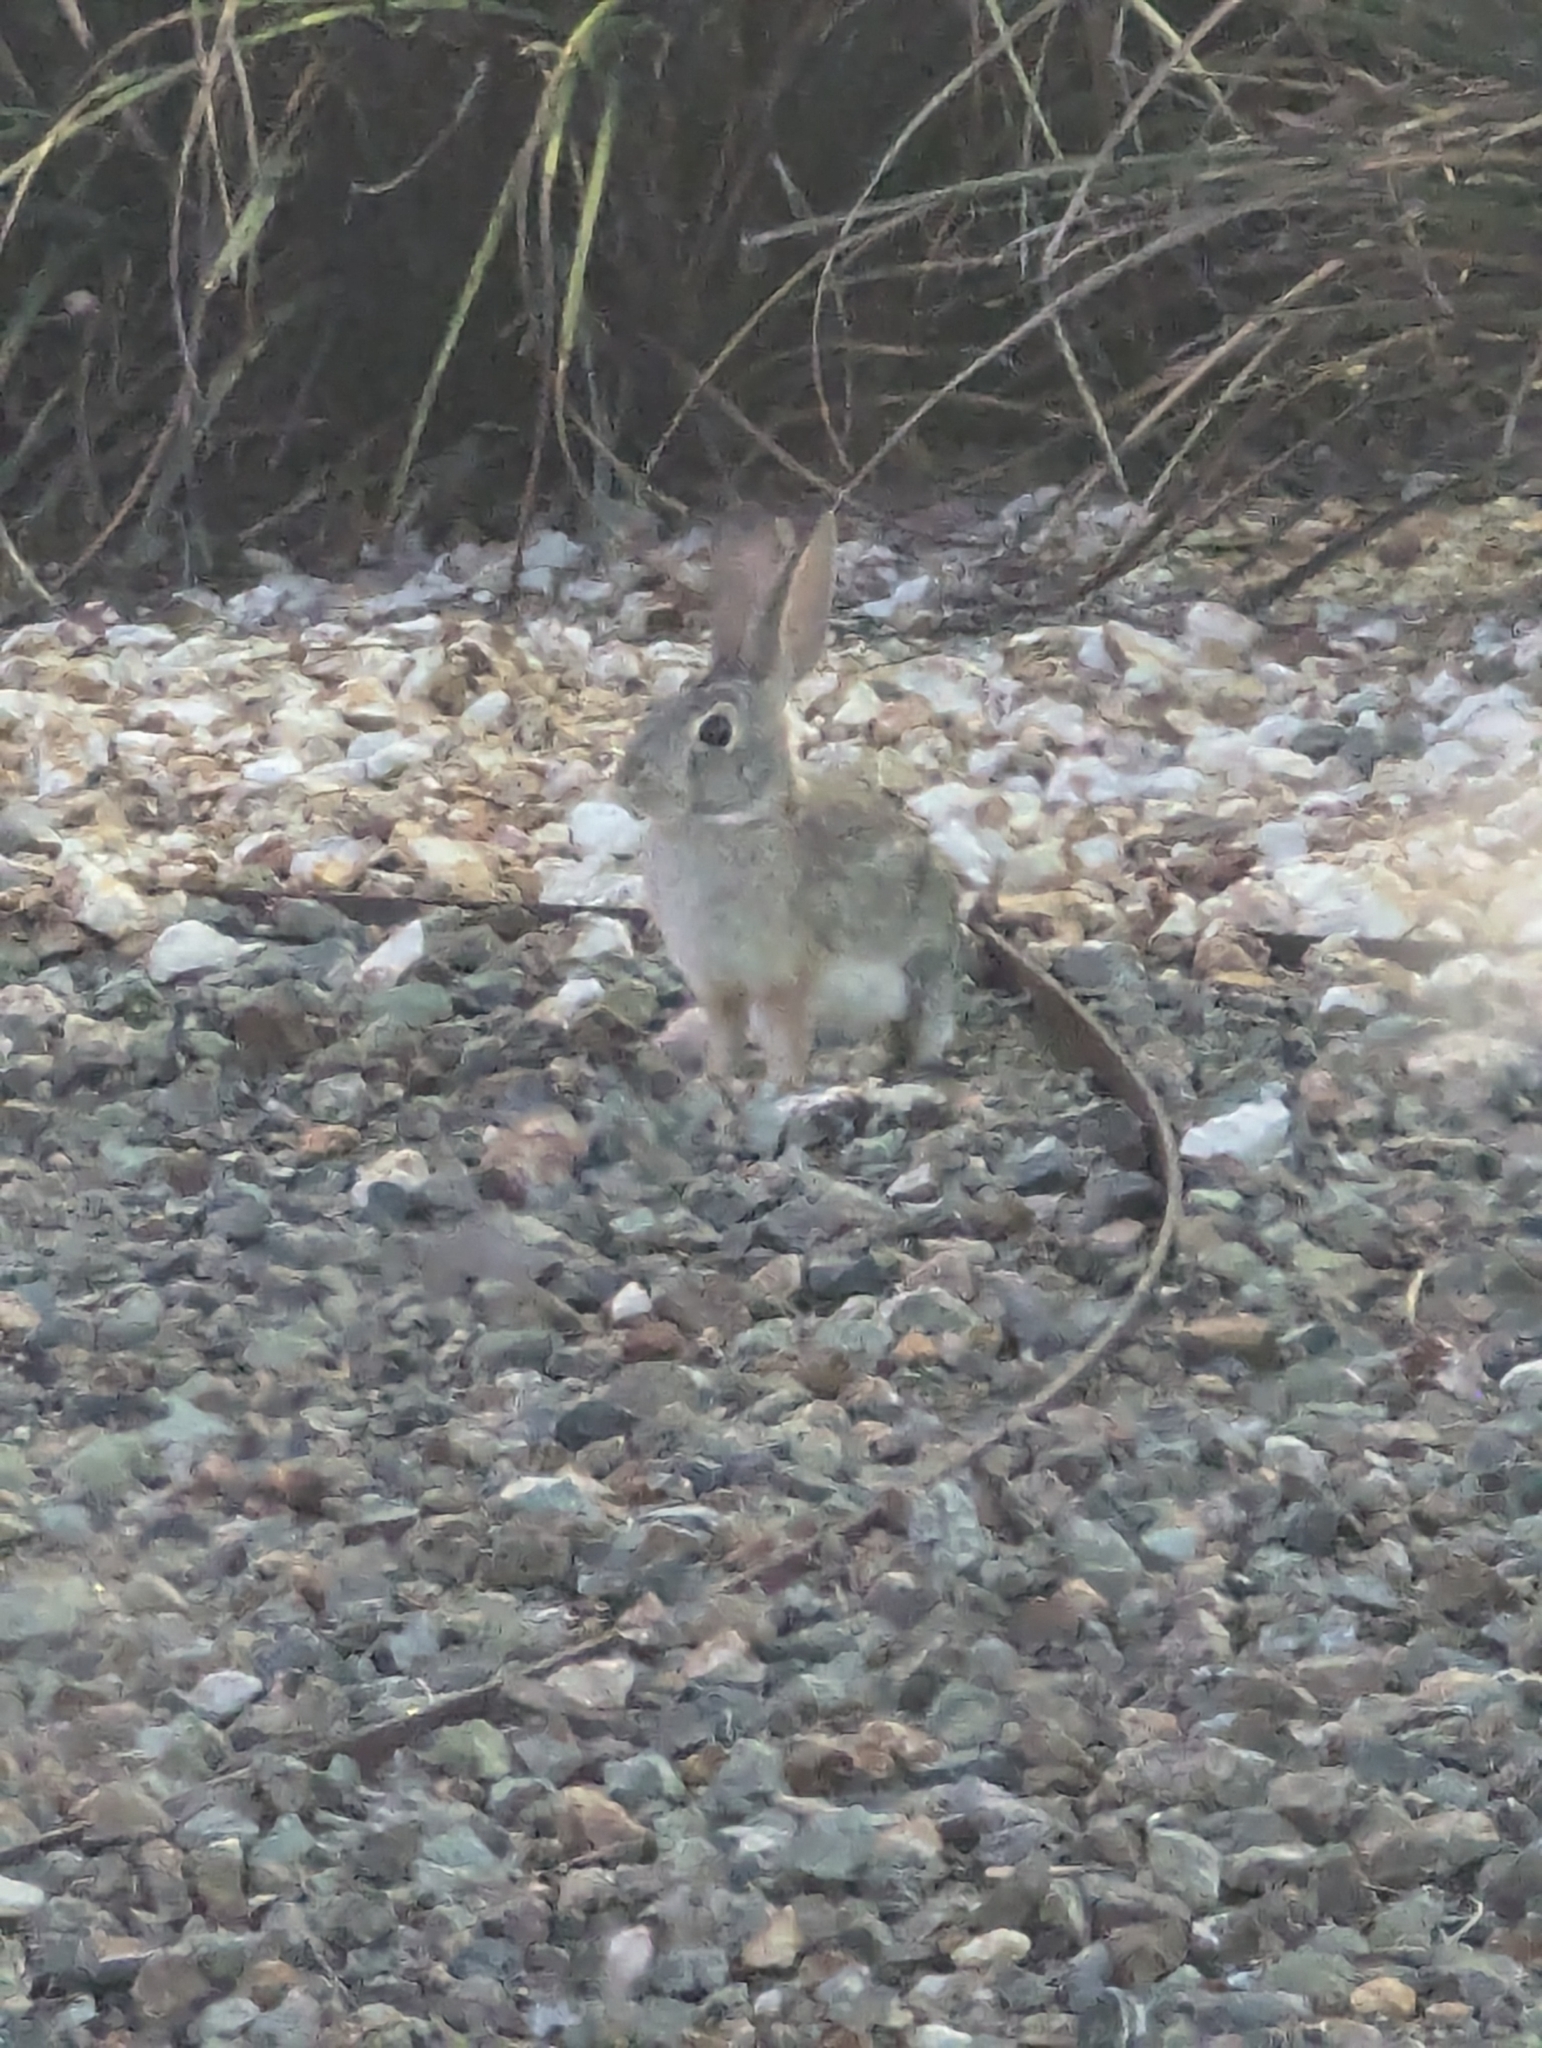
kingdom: Animalia
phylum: Chordata
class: Mammalia
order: Lagomorpha
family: Leporidae
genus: Sylvilagus
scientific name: Sylvilagus audubonii
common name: Desert cottontail
